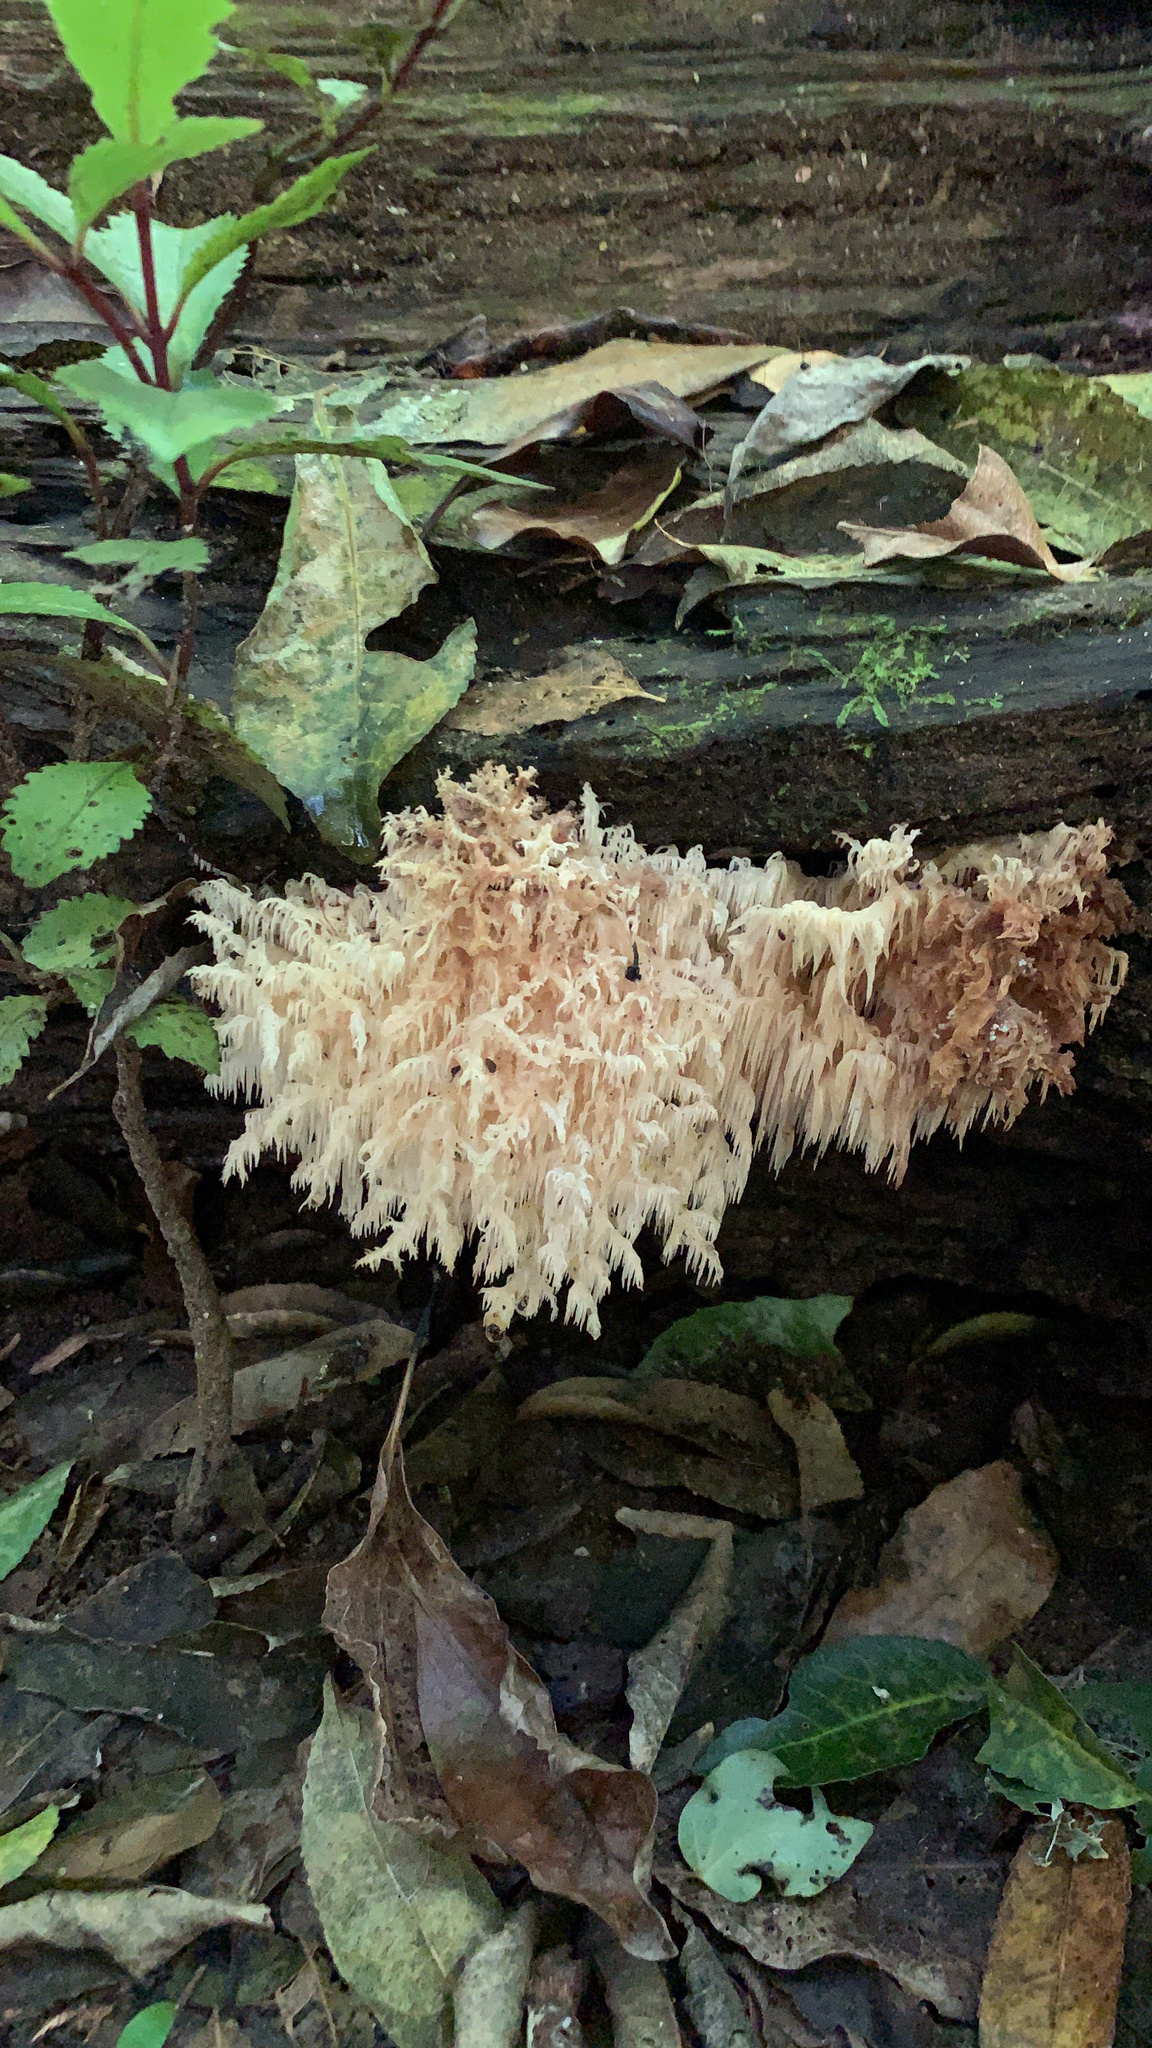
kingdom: Fungi
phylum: Basidiomycota
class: Agaricomycetes
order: Russulales
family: Hericiaceae
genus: Hericium
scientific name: Hericium novae-zealandiae
